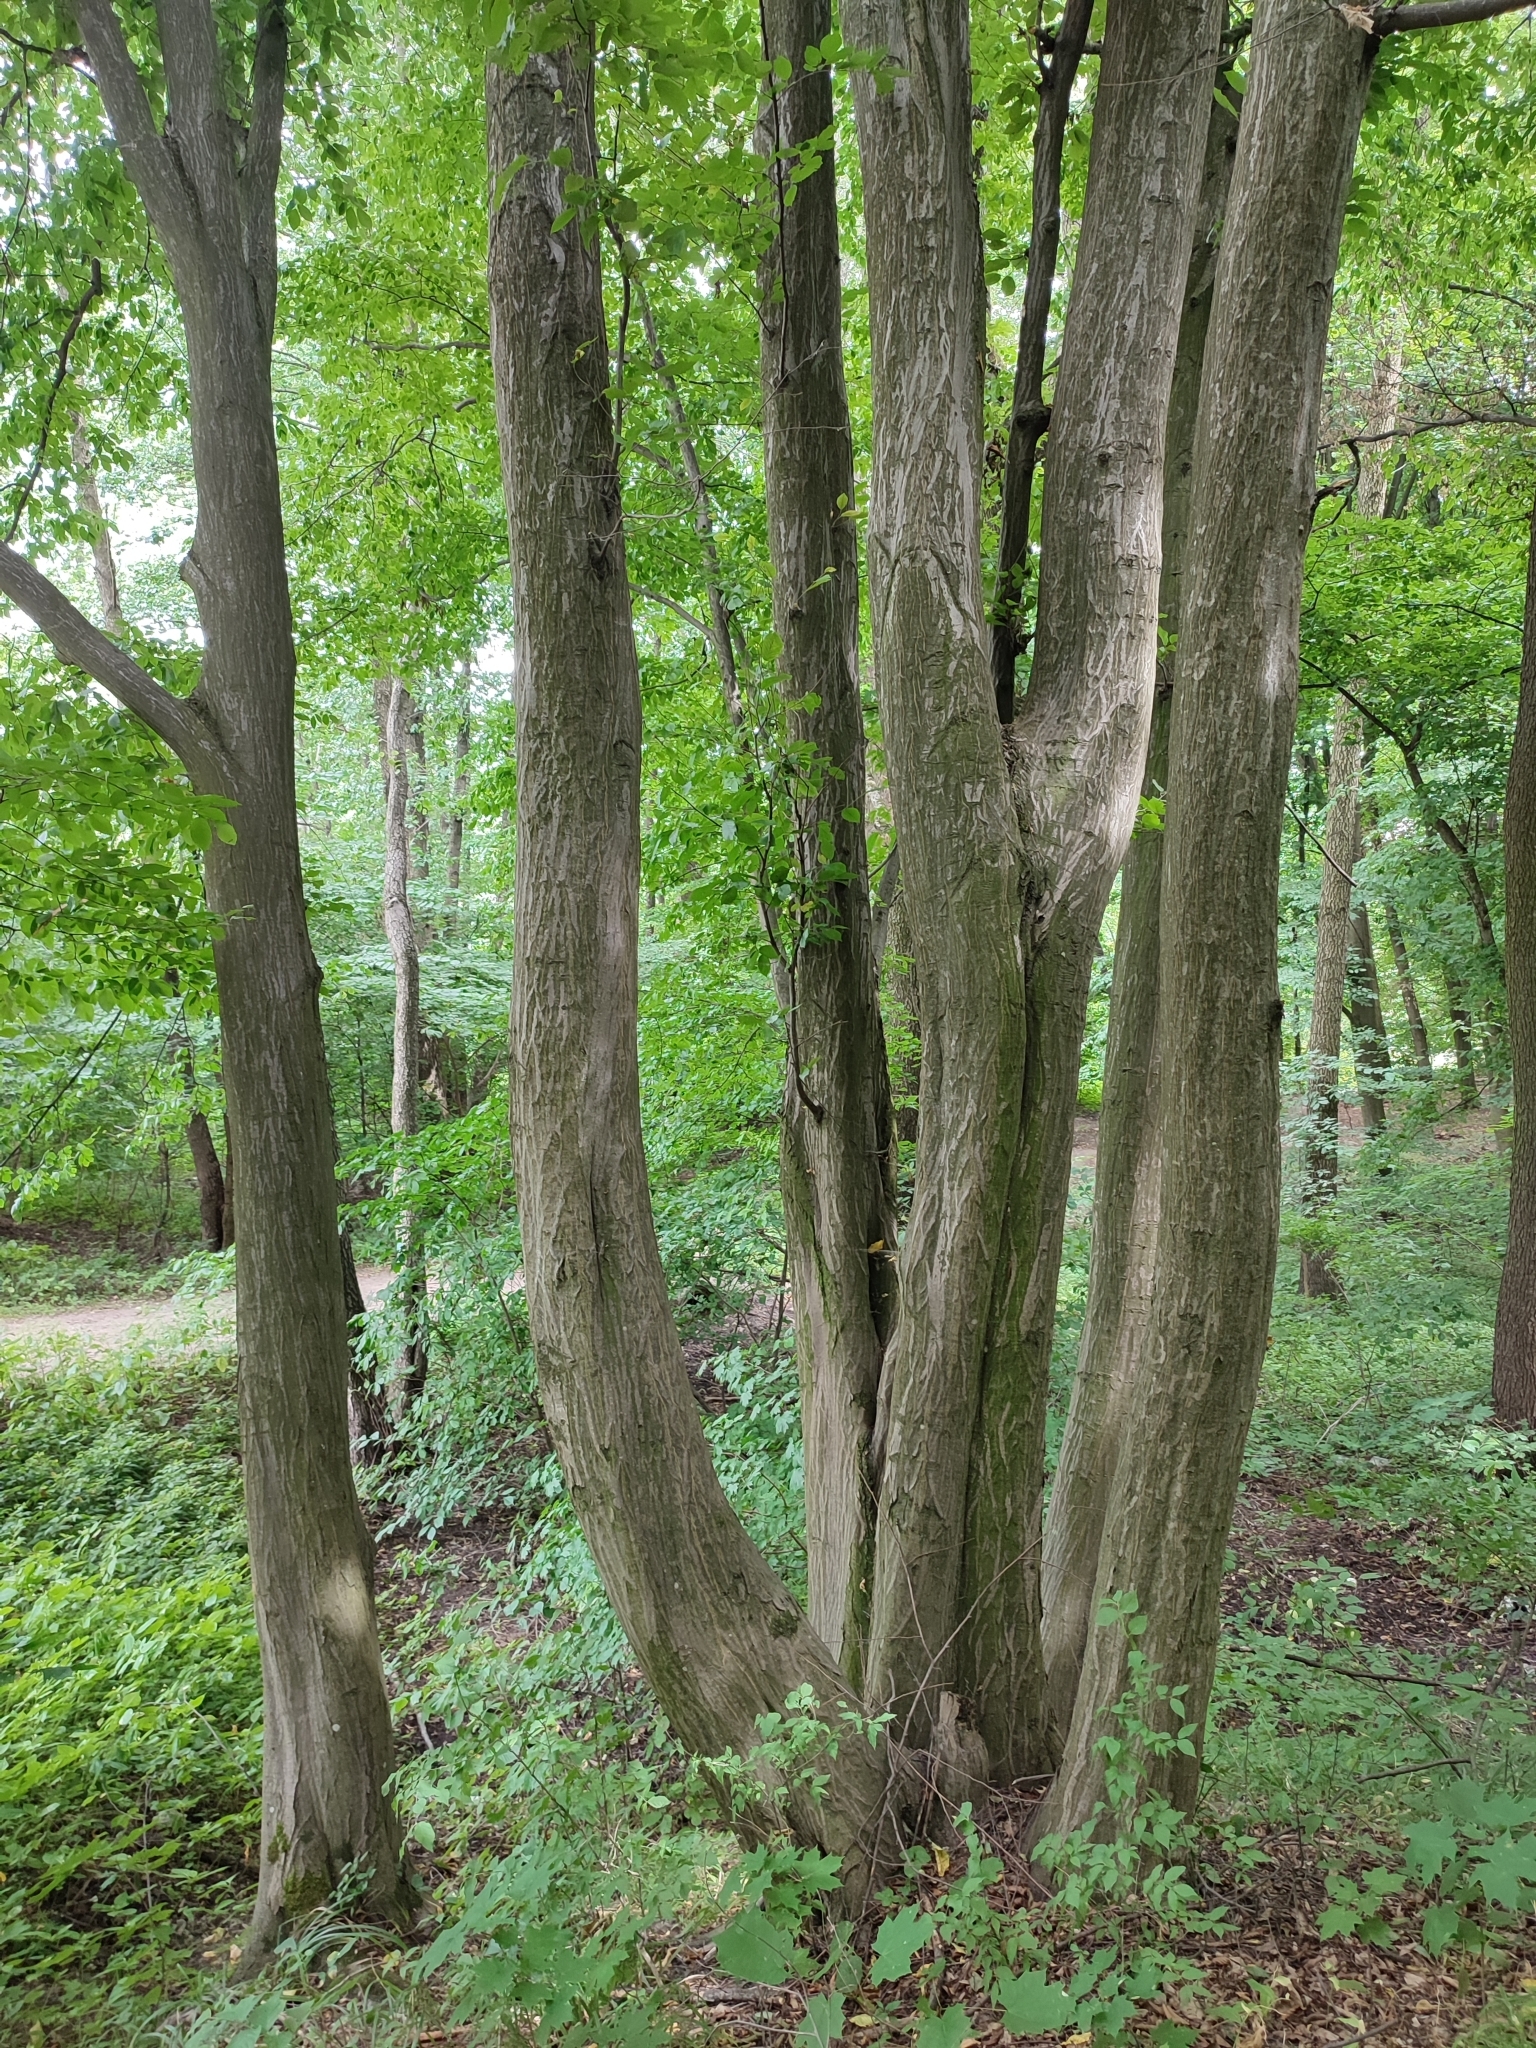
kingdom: Plantae
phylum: Tracheophyta
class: Magnoliopsida
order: Fagales
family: Betulaceae
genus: Carpinus
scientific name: Carpinus betulus
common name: Hornbeam
